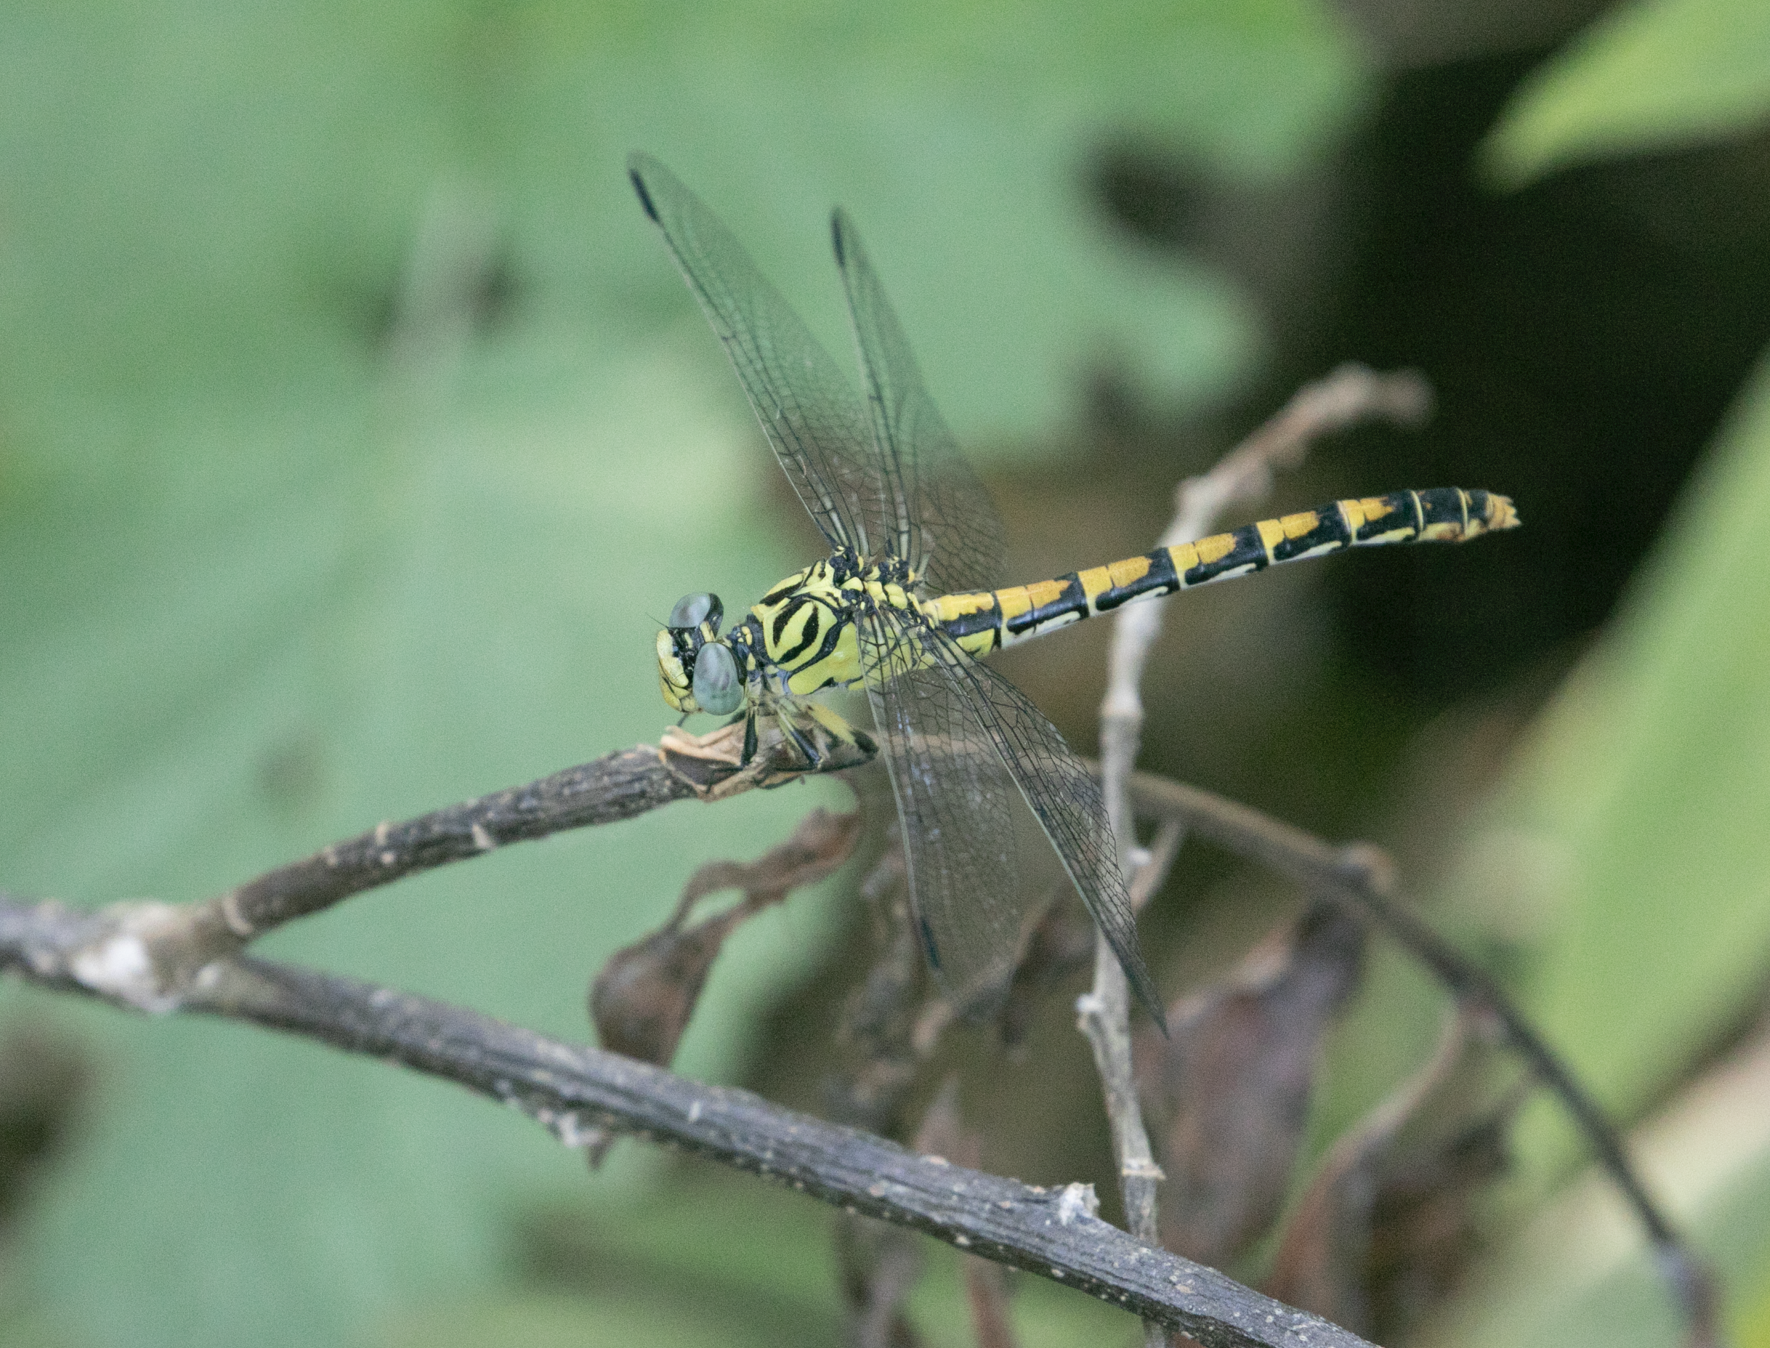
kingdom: Animalia
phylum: Arthropoda
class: Insecta
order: Odonata
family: Gomphidae
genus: Onychogomphus
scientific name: Onychogomphus forcipatus
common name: Small pincertail
